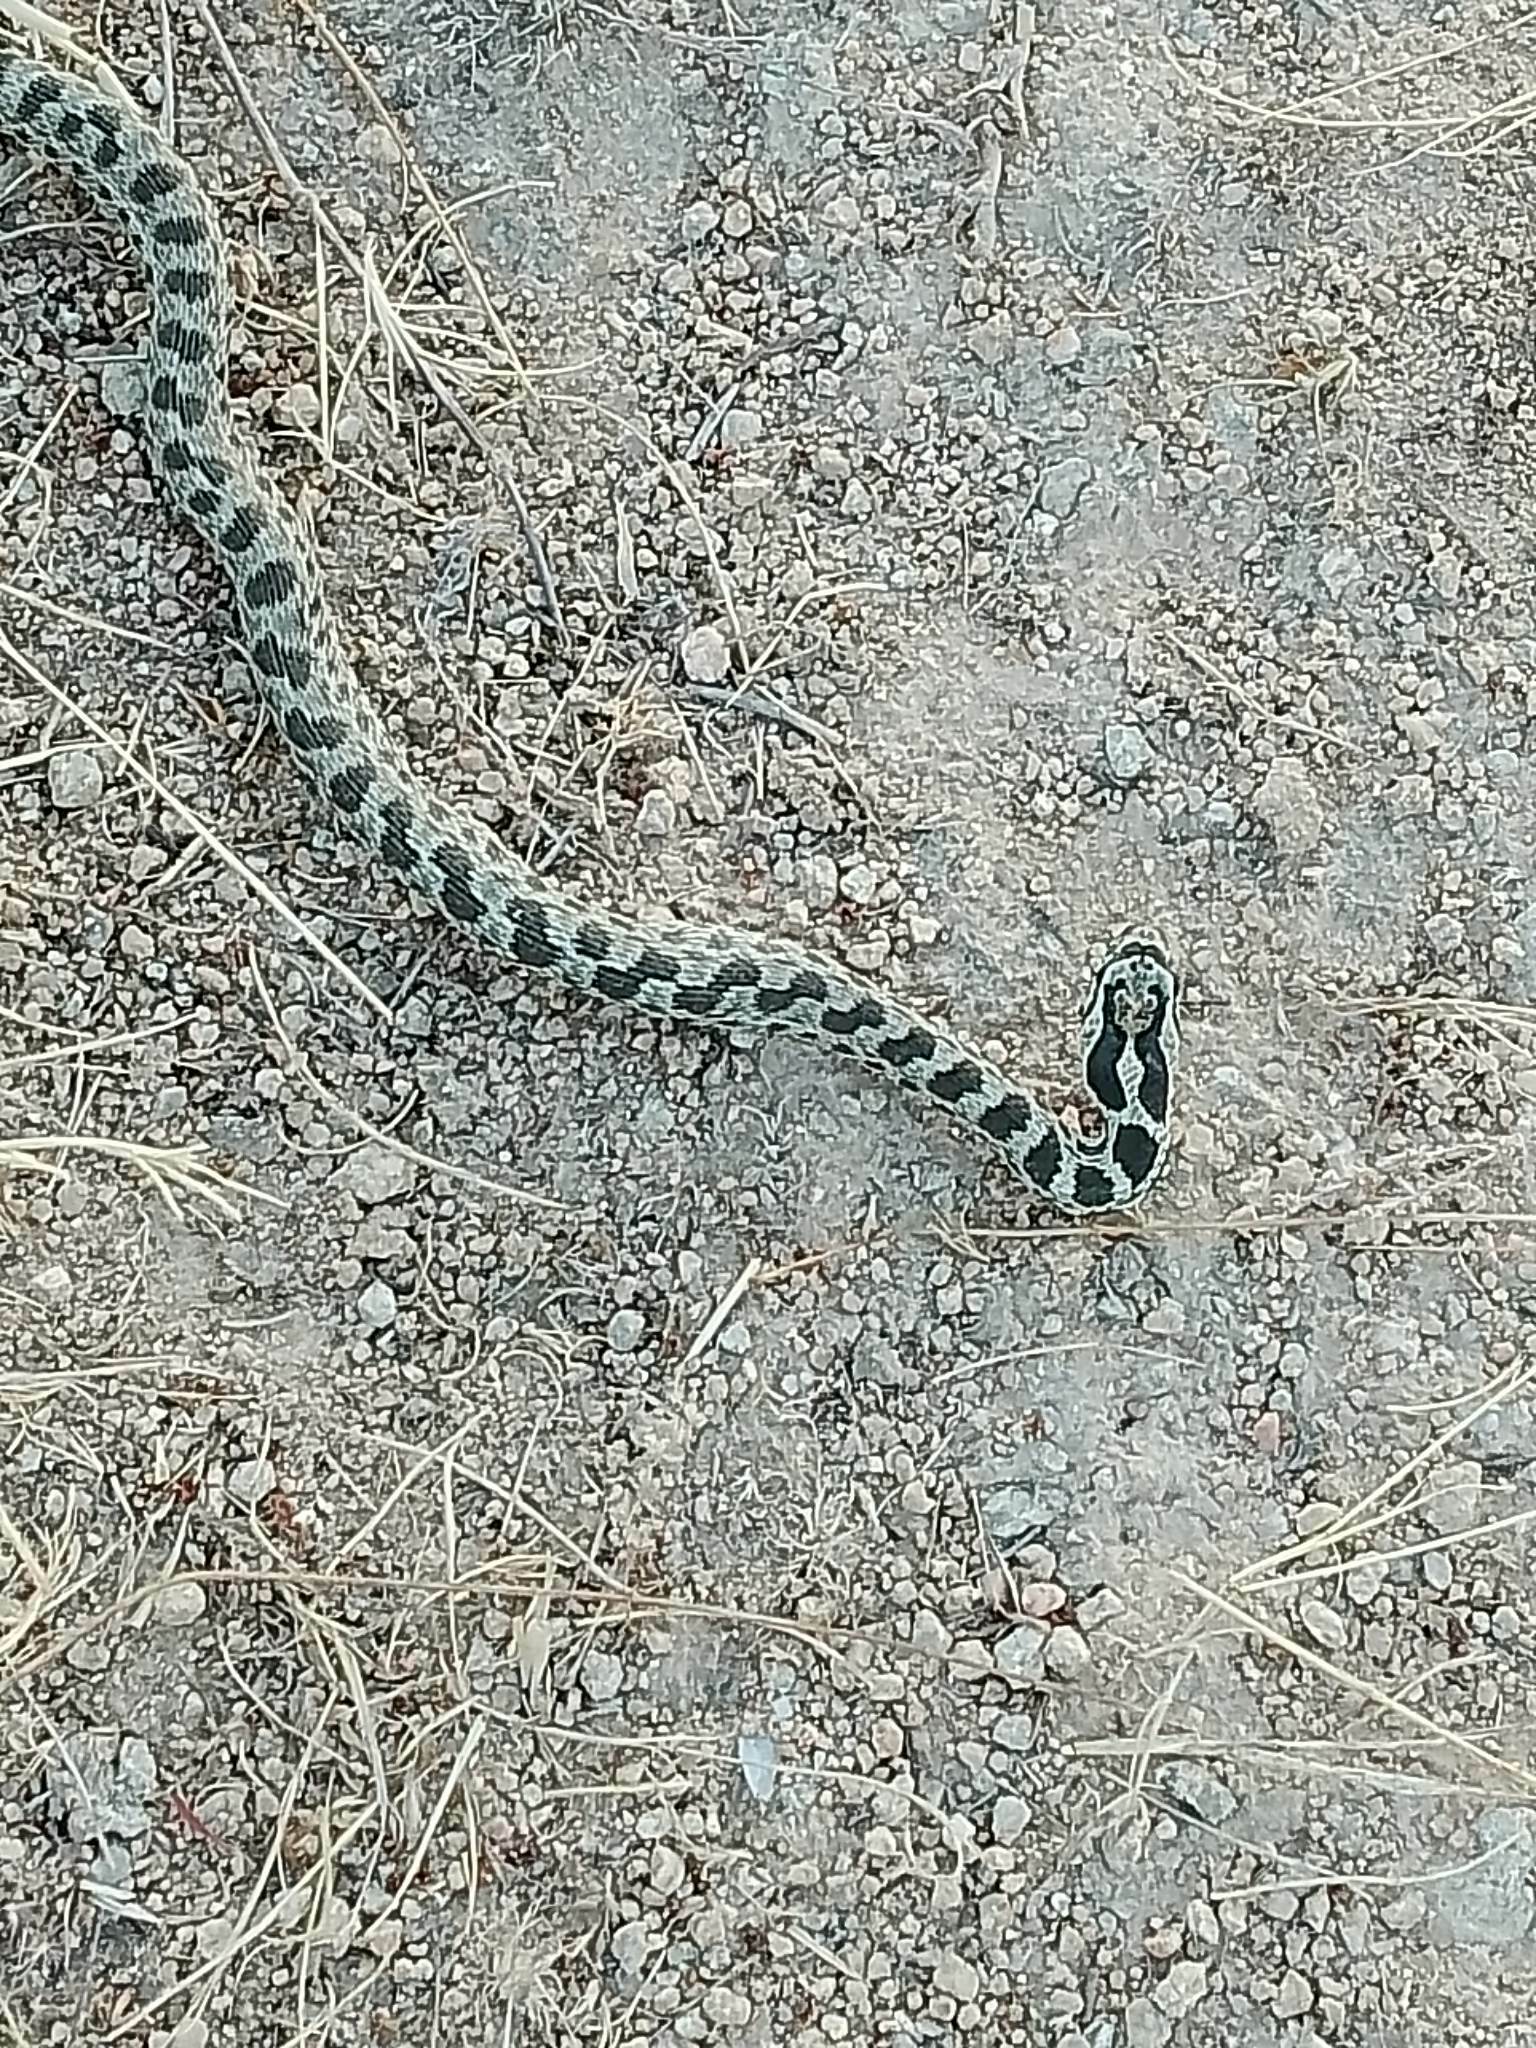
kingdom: Animalia
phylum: Chordata
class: Squamata
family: Colubridae
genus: Elaphe
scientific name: Elaphe sauromates
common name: Eastern four-lined ratsnake
